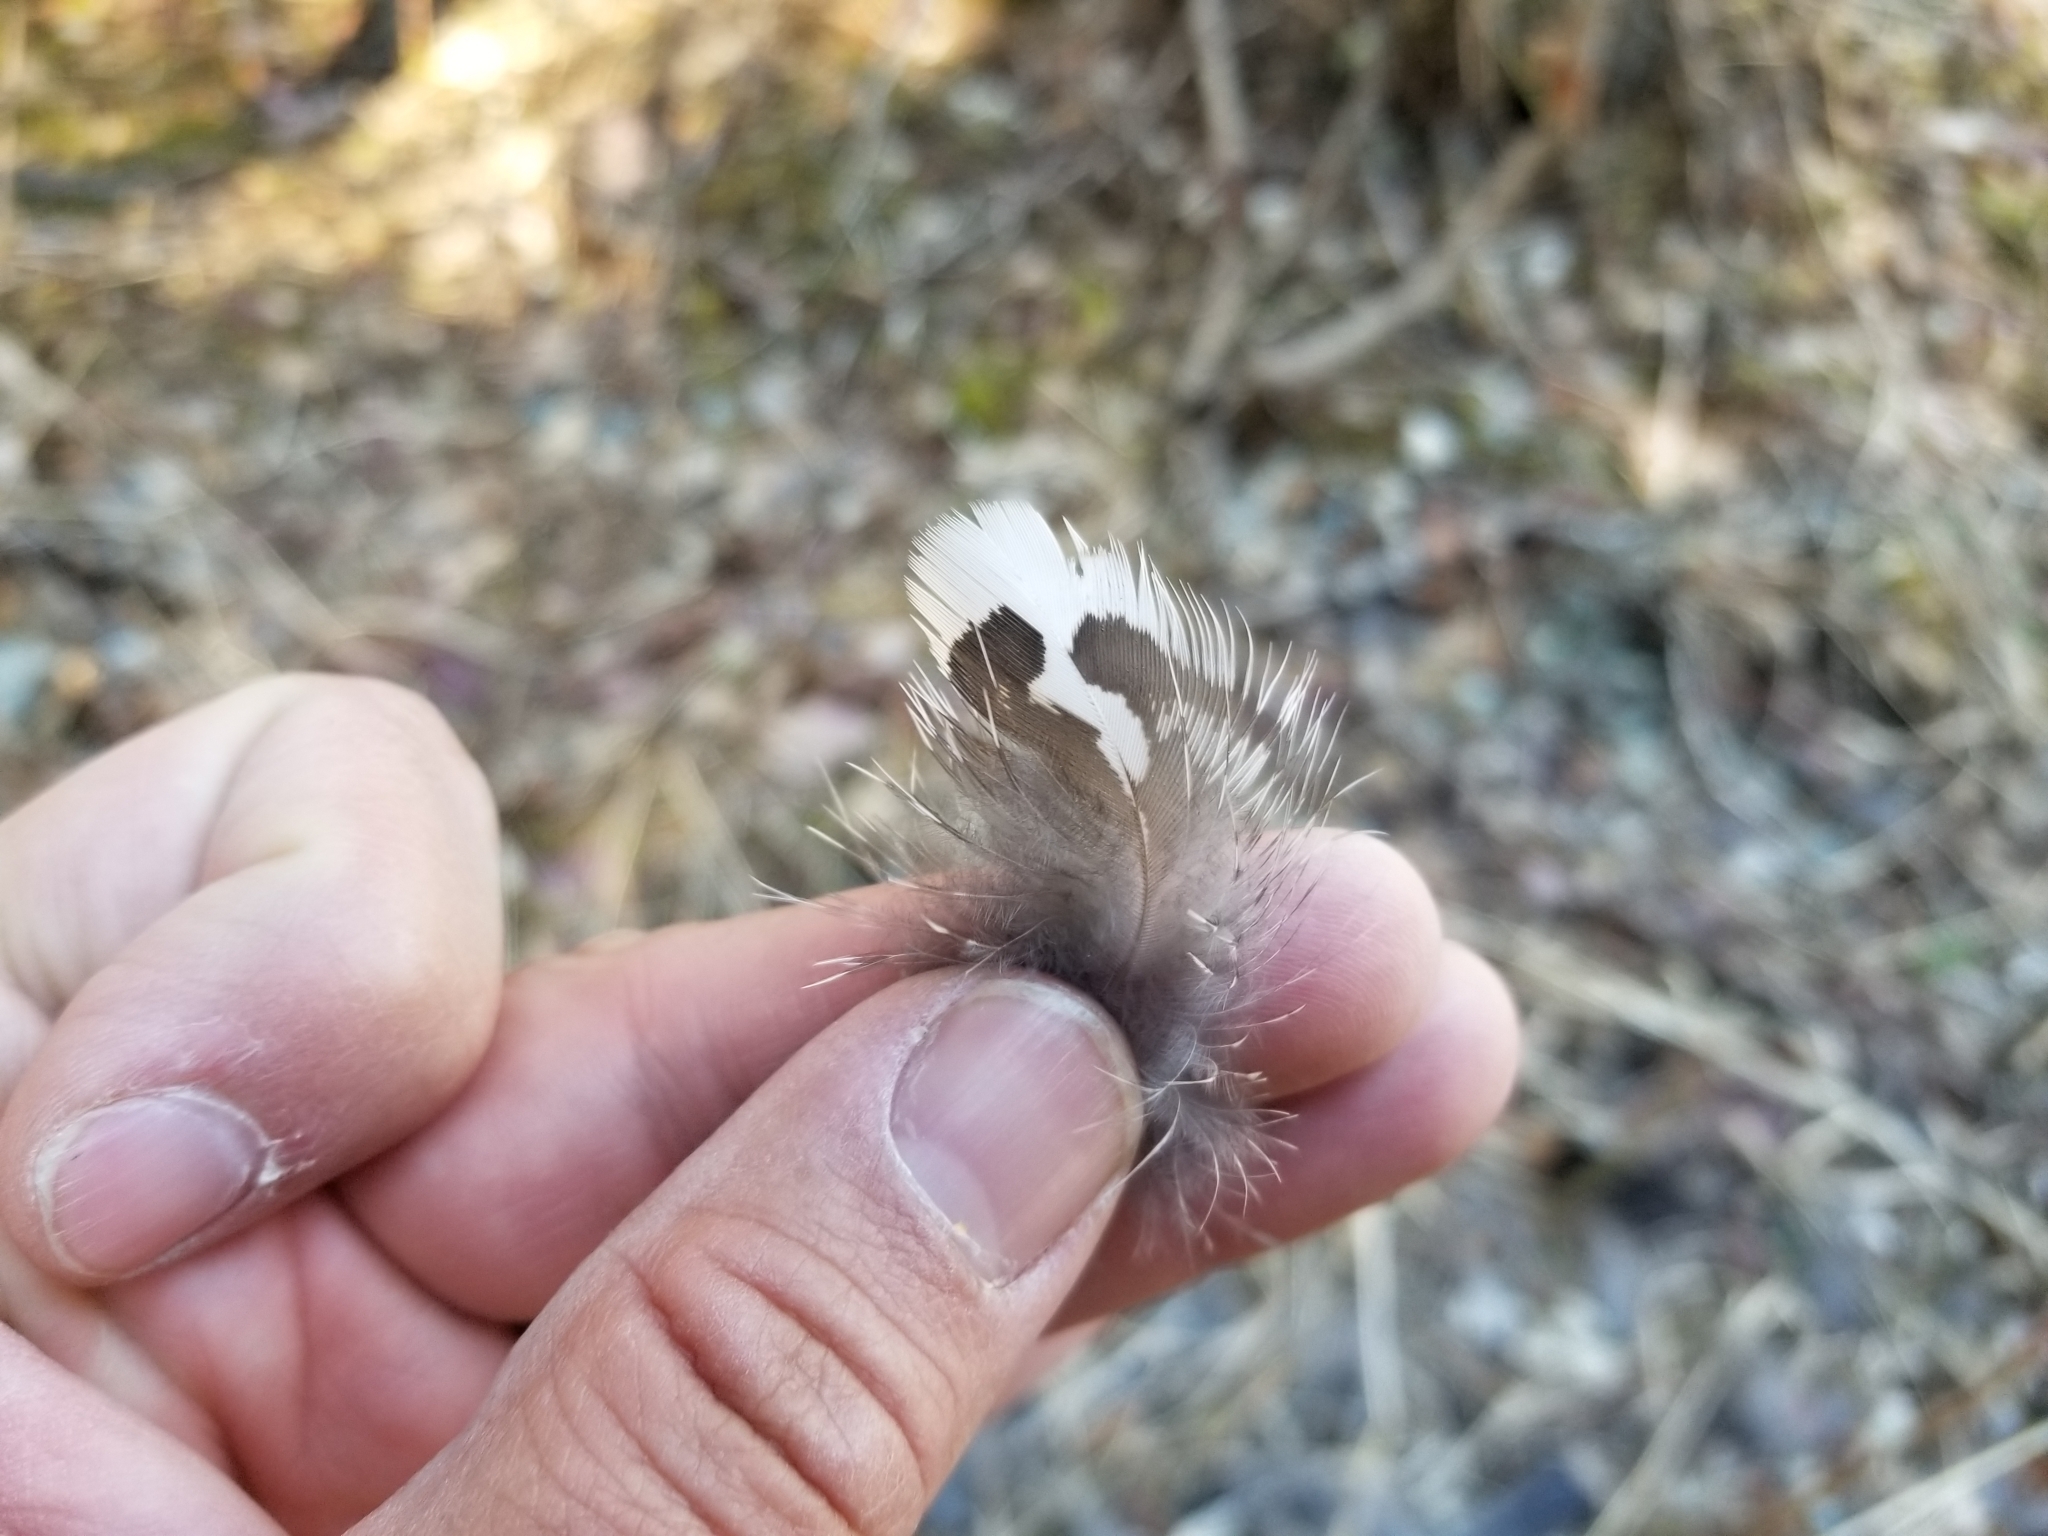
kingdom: Animalia
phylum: Chordata
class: Aves
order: Galliformes
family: Phasianidae
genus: Canachites
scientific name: Canachites canadensis
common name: Spruce grouse
